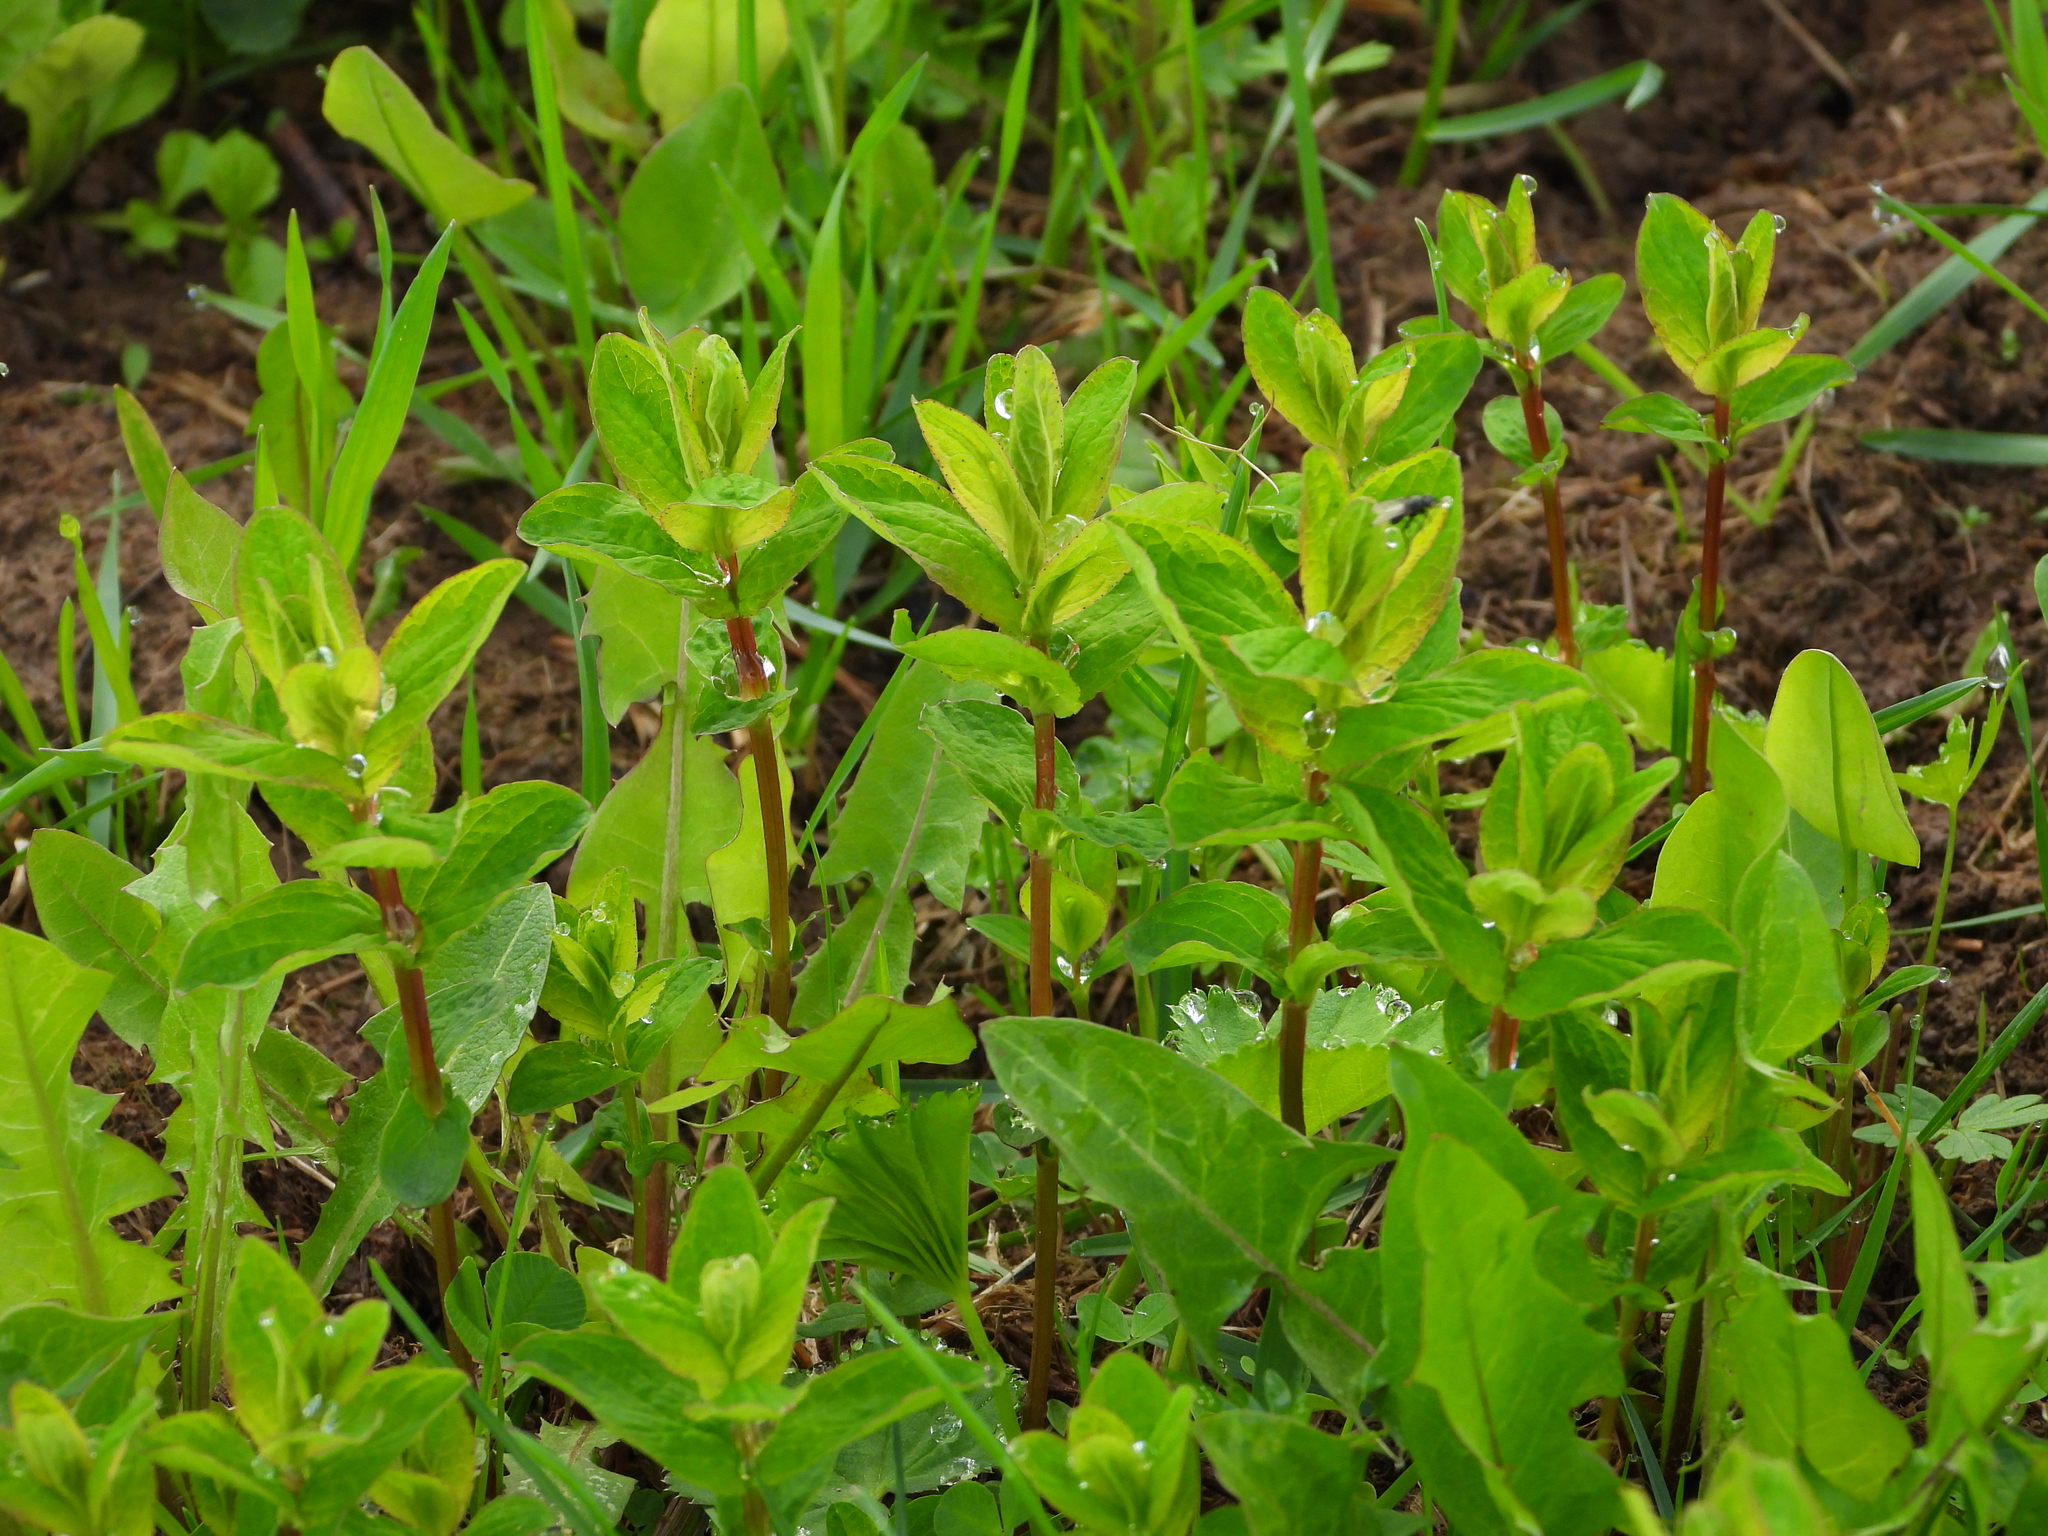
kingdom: Plantae
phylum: Tracheophyta
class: Magnoliopsida
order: Malpighiales
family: Hypericaceae
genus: Hypericum
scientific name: Hypericum maculatum
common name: Imperforate st. john's-wort
